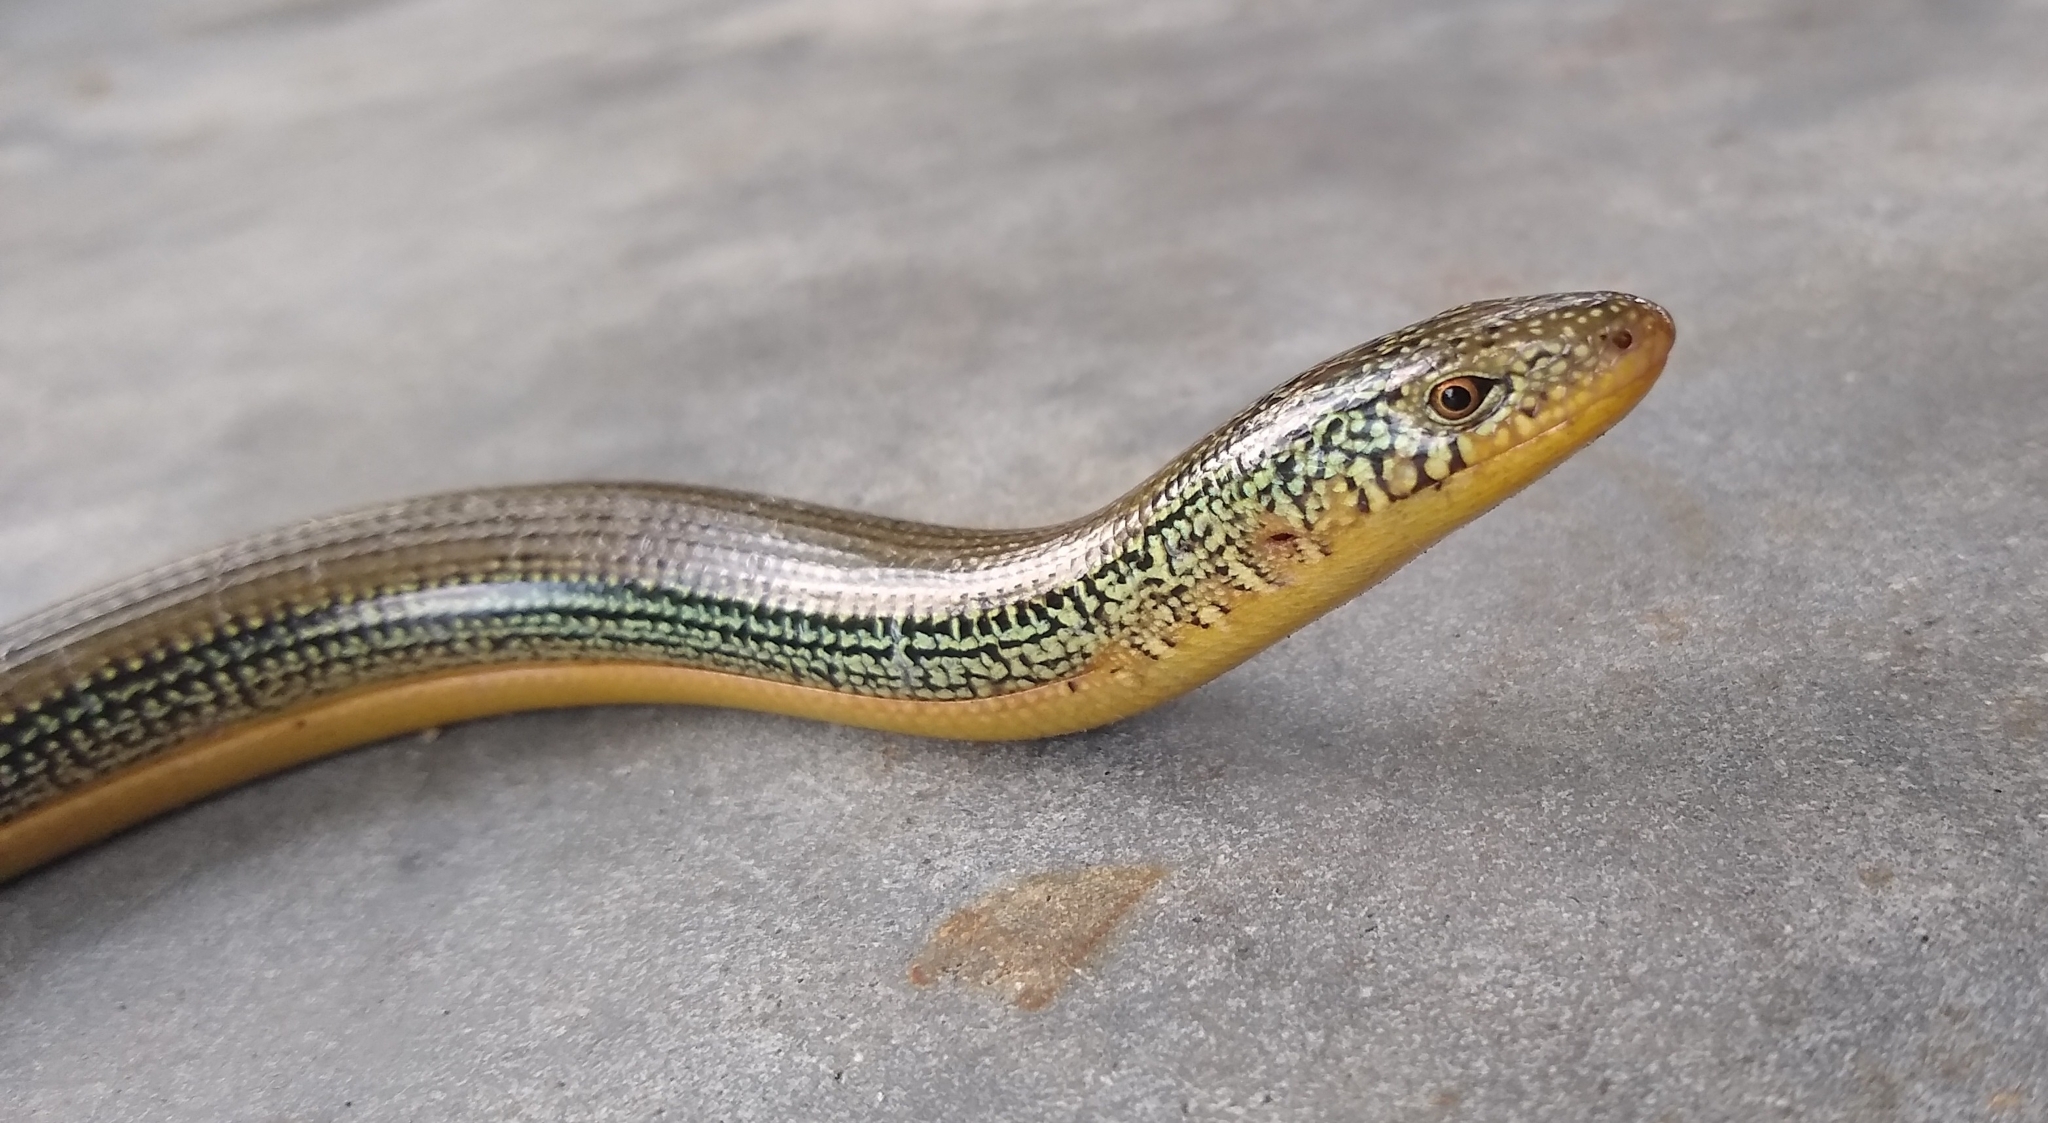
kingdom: Animalia
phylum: Chordata
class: Squamata
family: Anguidae
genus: Ophisaurus
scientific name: Ophisaurus ventralis
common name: Eastern glass lizard
